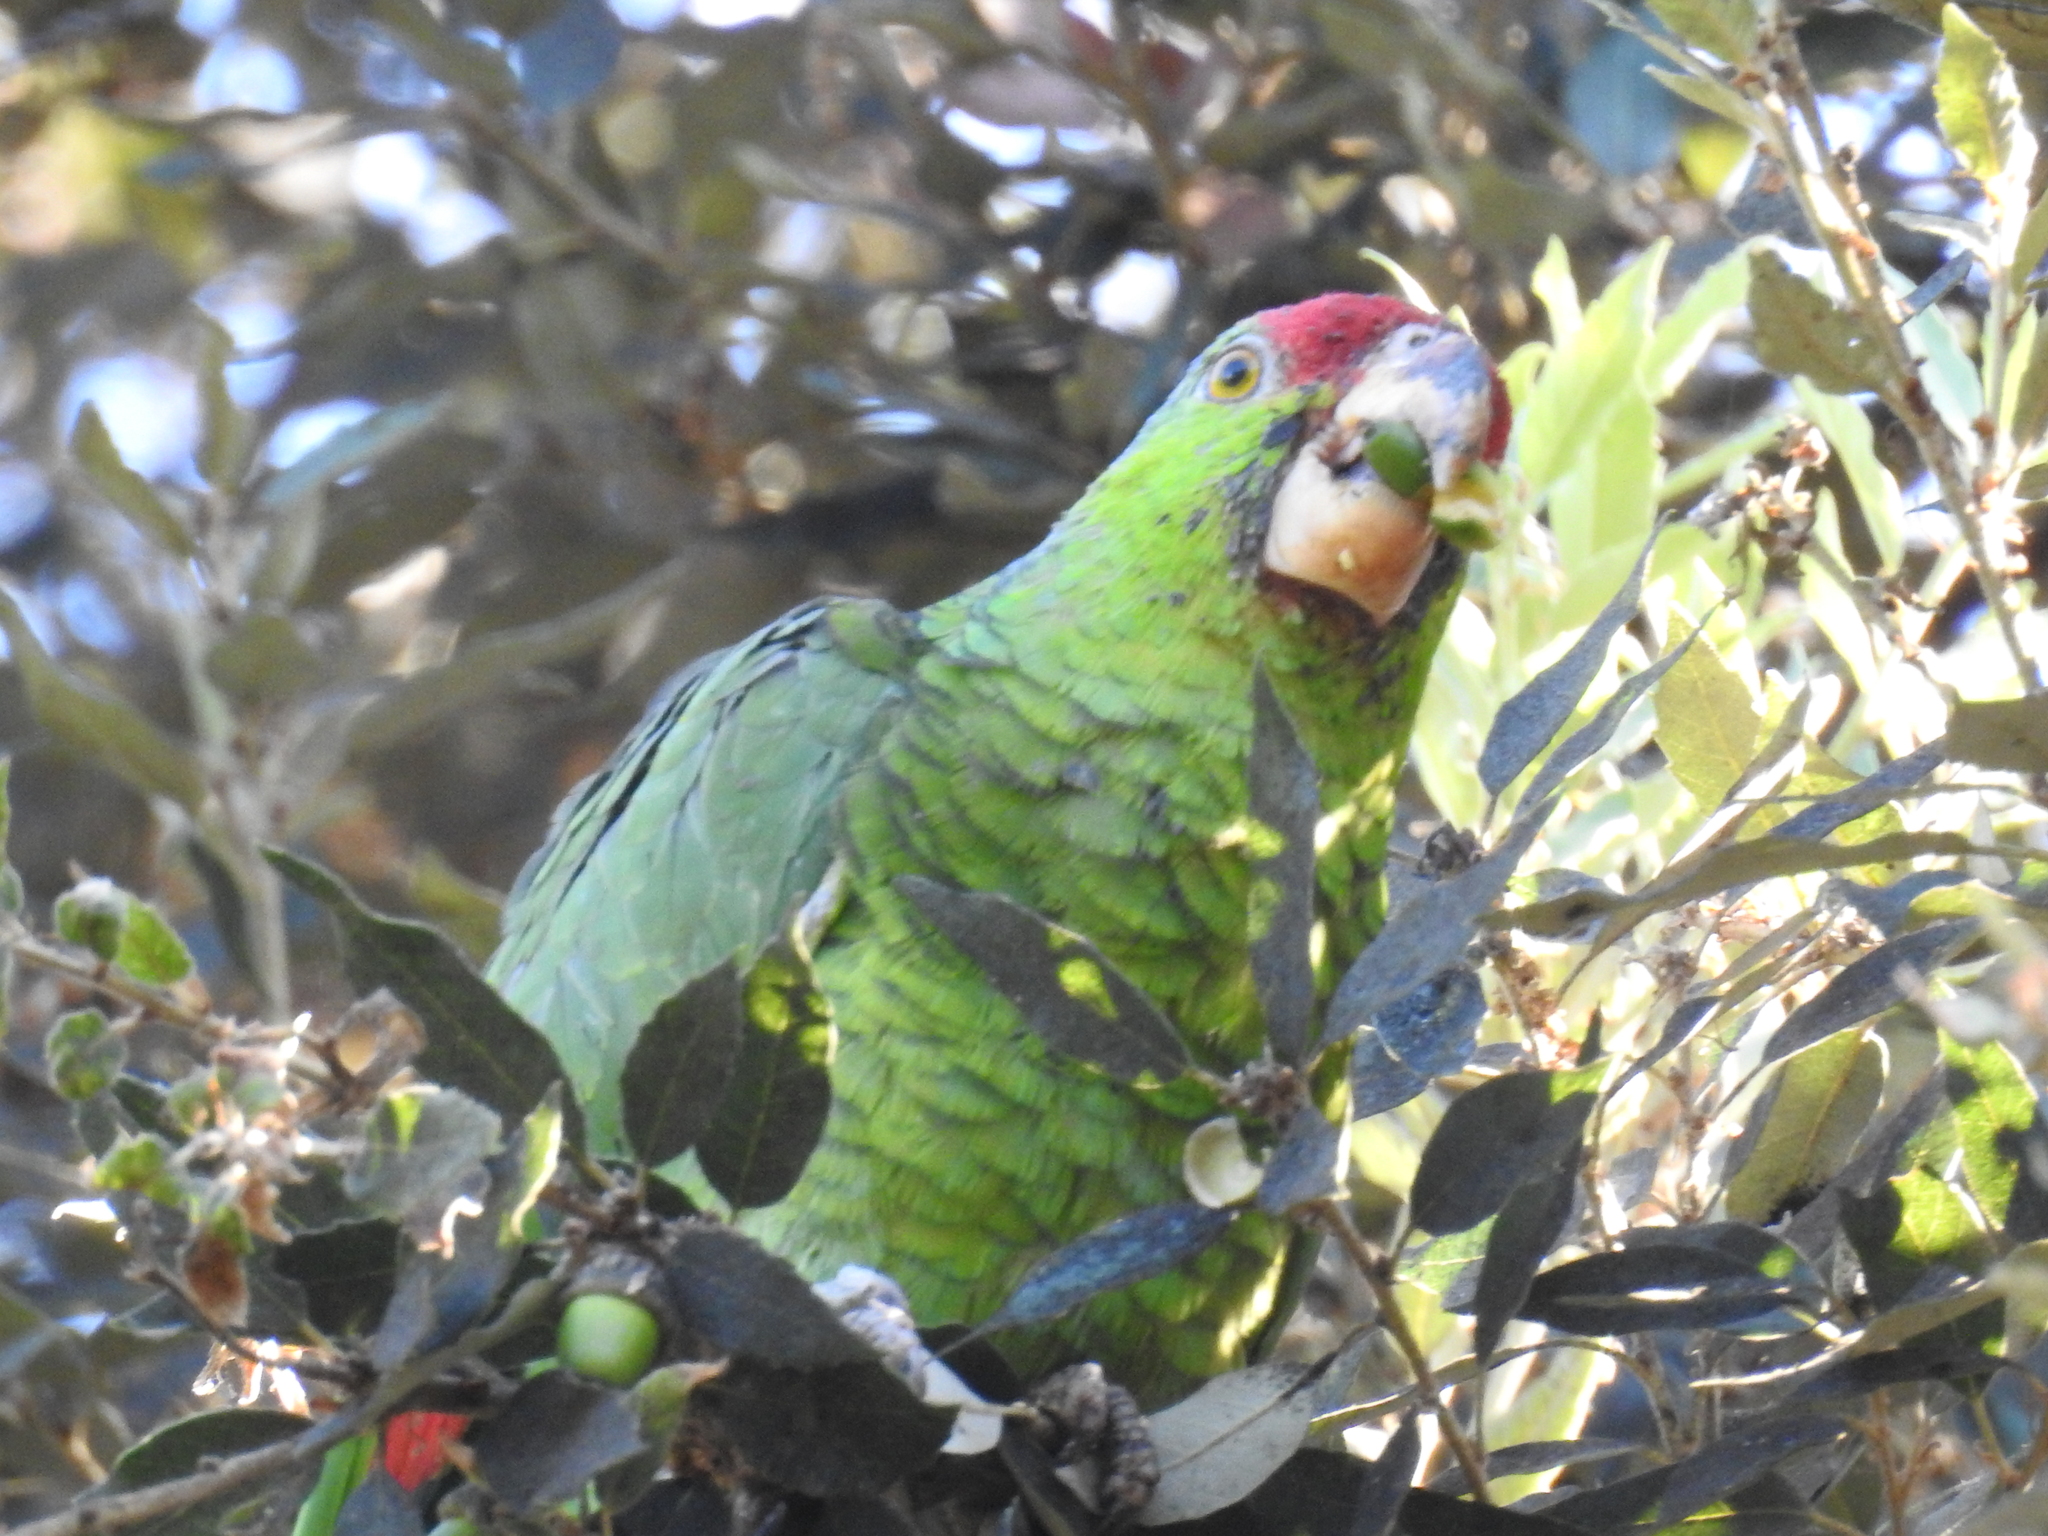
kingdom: Animalia
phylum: Chordata
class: Aves
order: Psittaciformes
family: Psittacidae
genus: Amazona
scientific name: Amazona viridigenalis
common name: Red-crowned amazon
